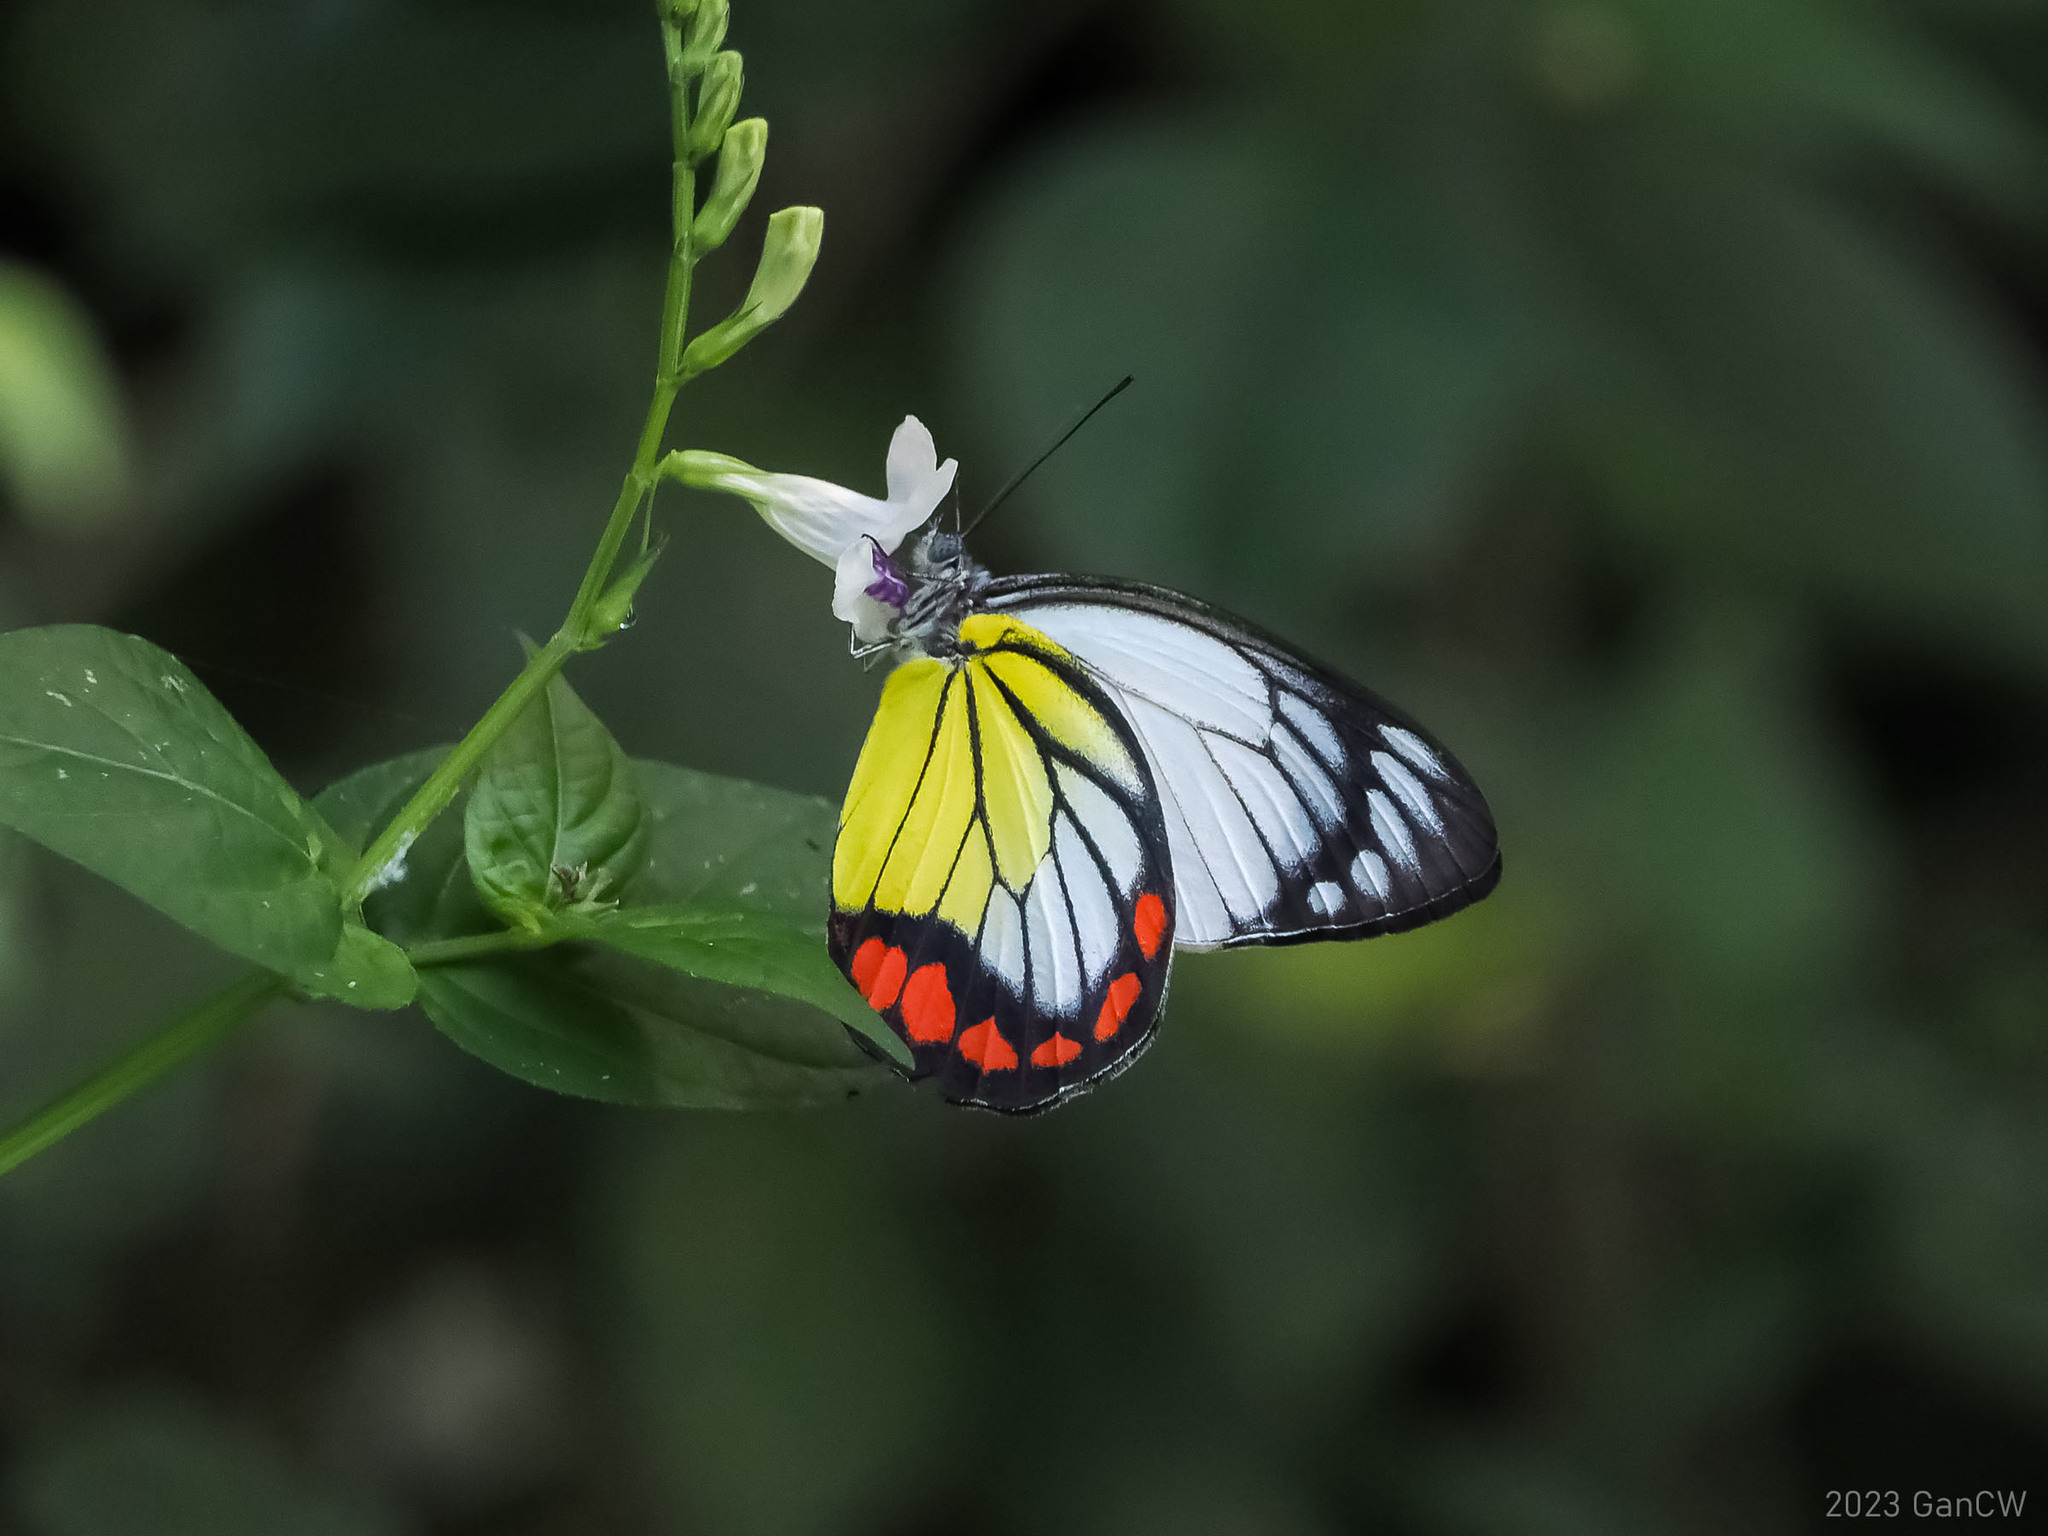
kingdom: Animalia
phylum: Arthropoda
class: Insecta
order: Lepidoptera
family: Pieridae
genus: Delias
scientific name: Delias hyparete
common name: Painted jezebel
